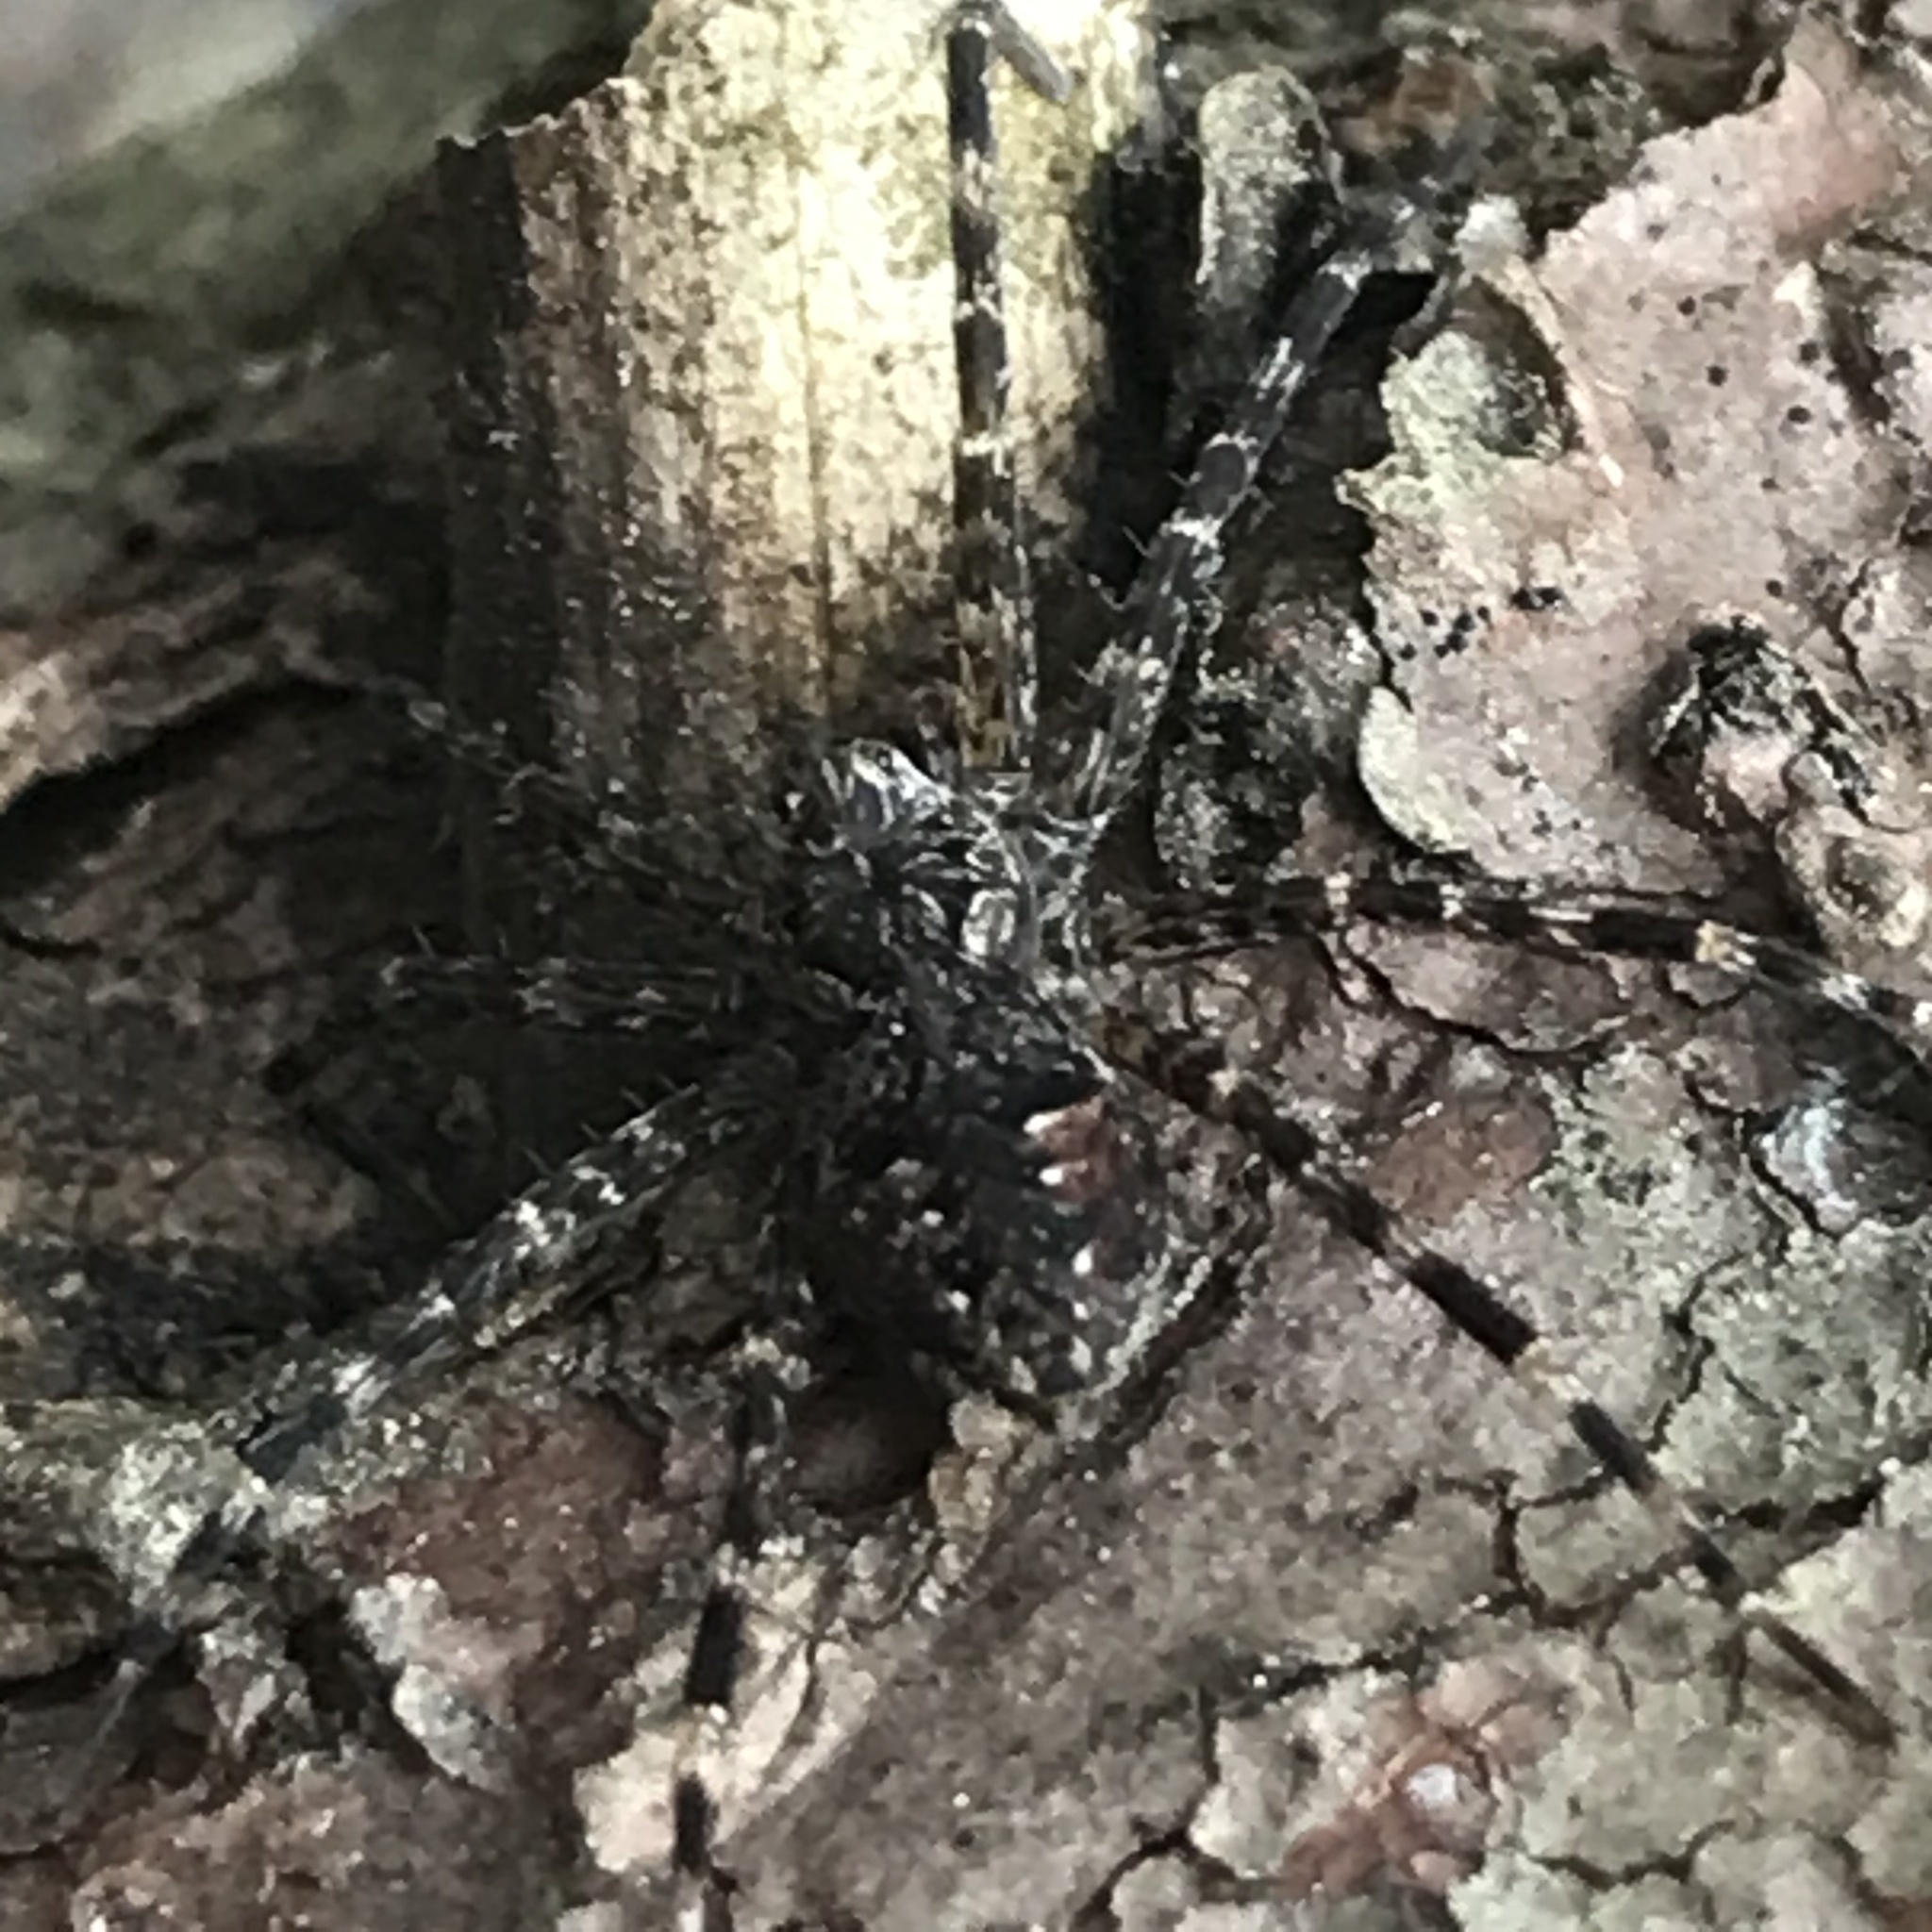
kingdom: Animalia
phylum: Arthropoda
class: Arachnida
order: Araneae
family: Pisauridae
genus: Dolomedes
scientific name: Dolomedes tenebrosus
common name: Dark fishing spider
